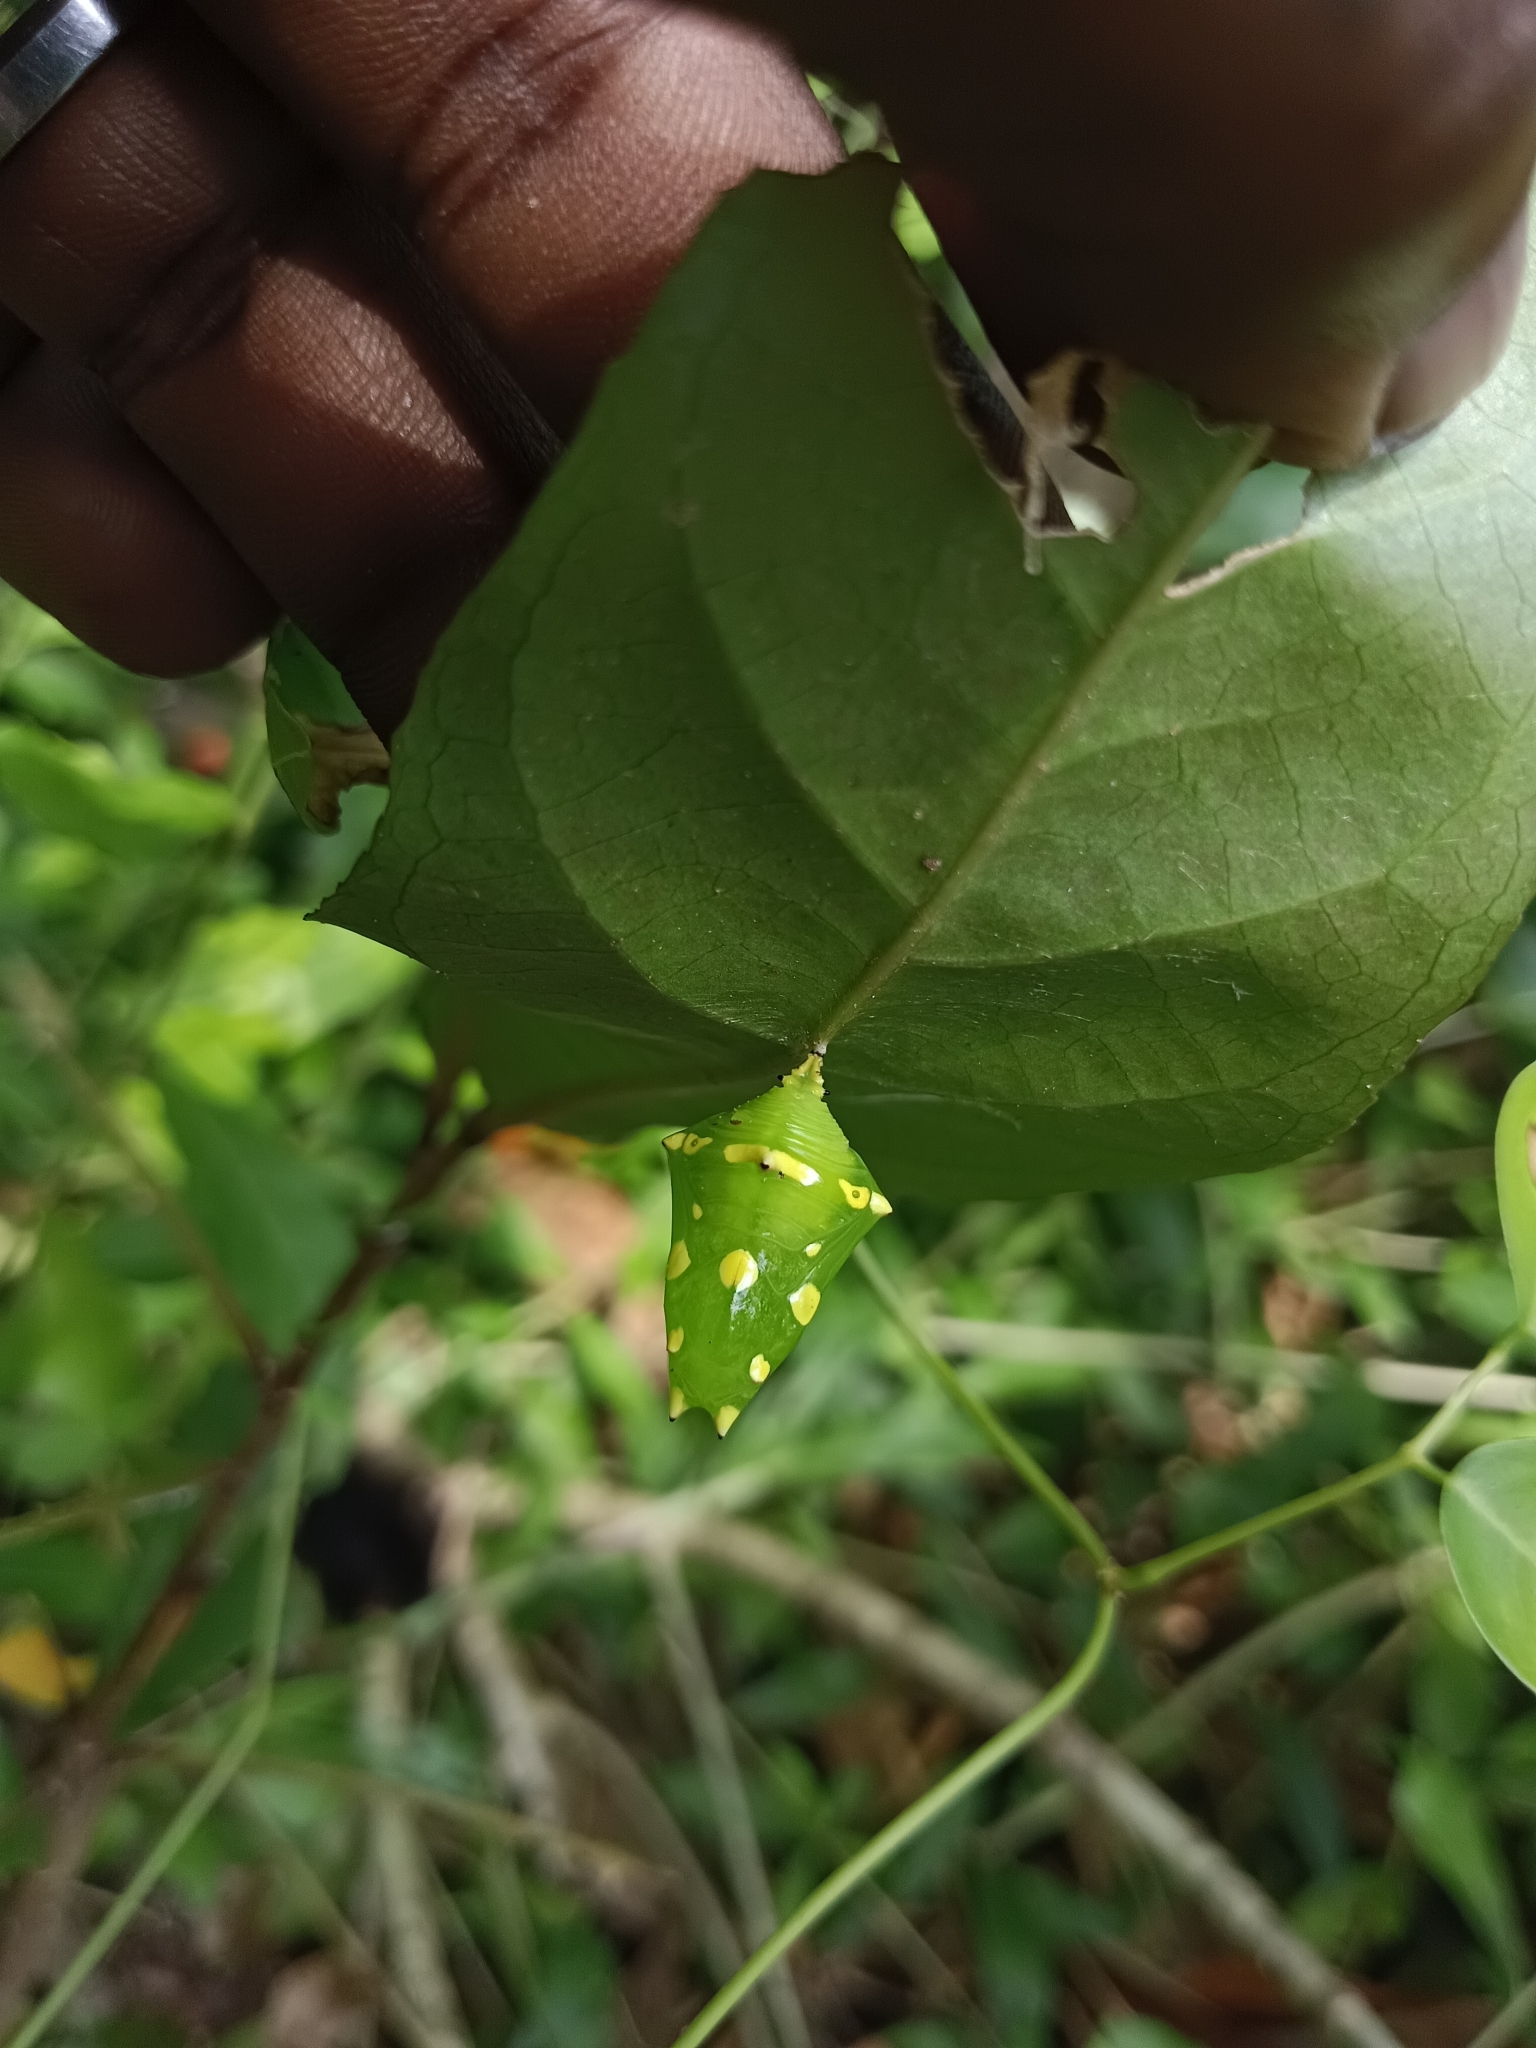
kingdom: Animalia
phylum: Arthropoda
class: Insecta
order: Lepidoptera
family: Nymphalidae
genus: Tanaecia
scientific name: Tanaecia lepidea
